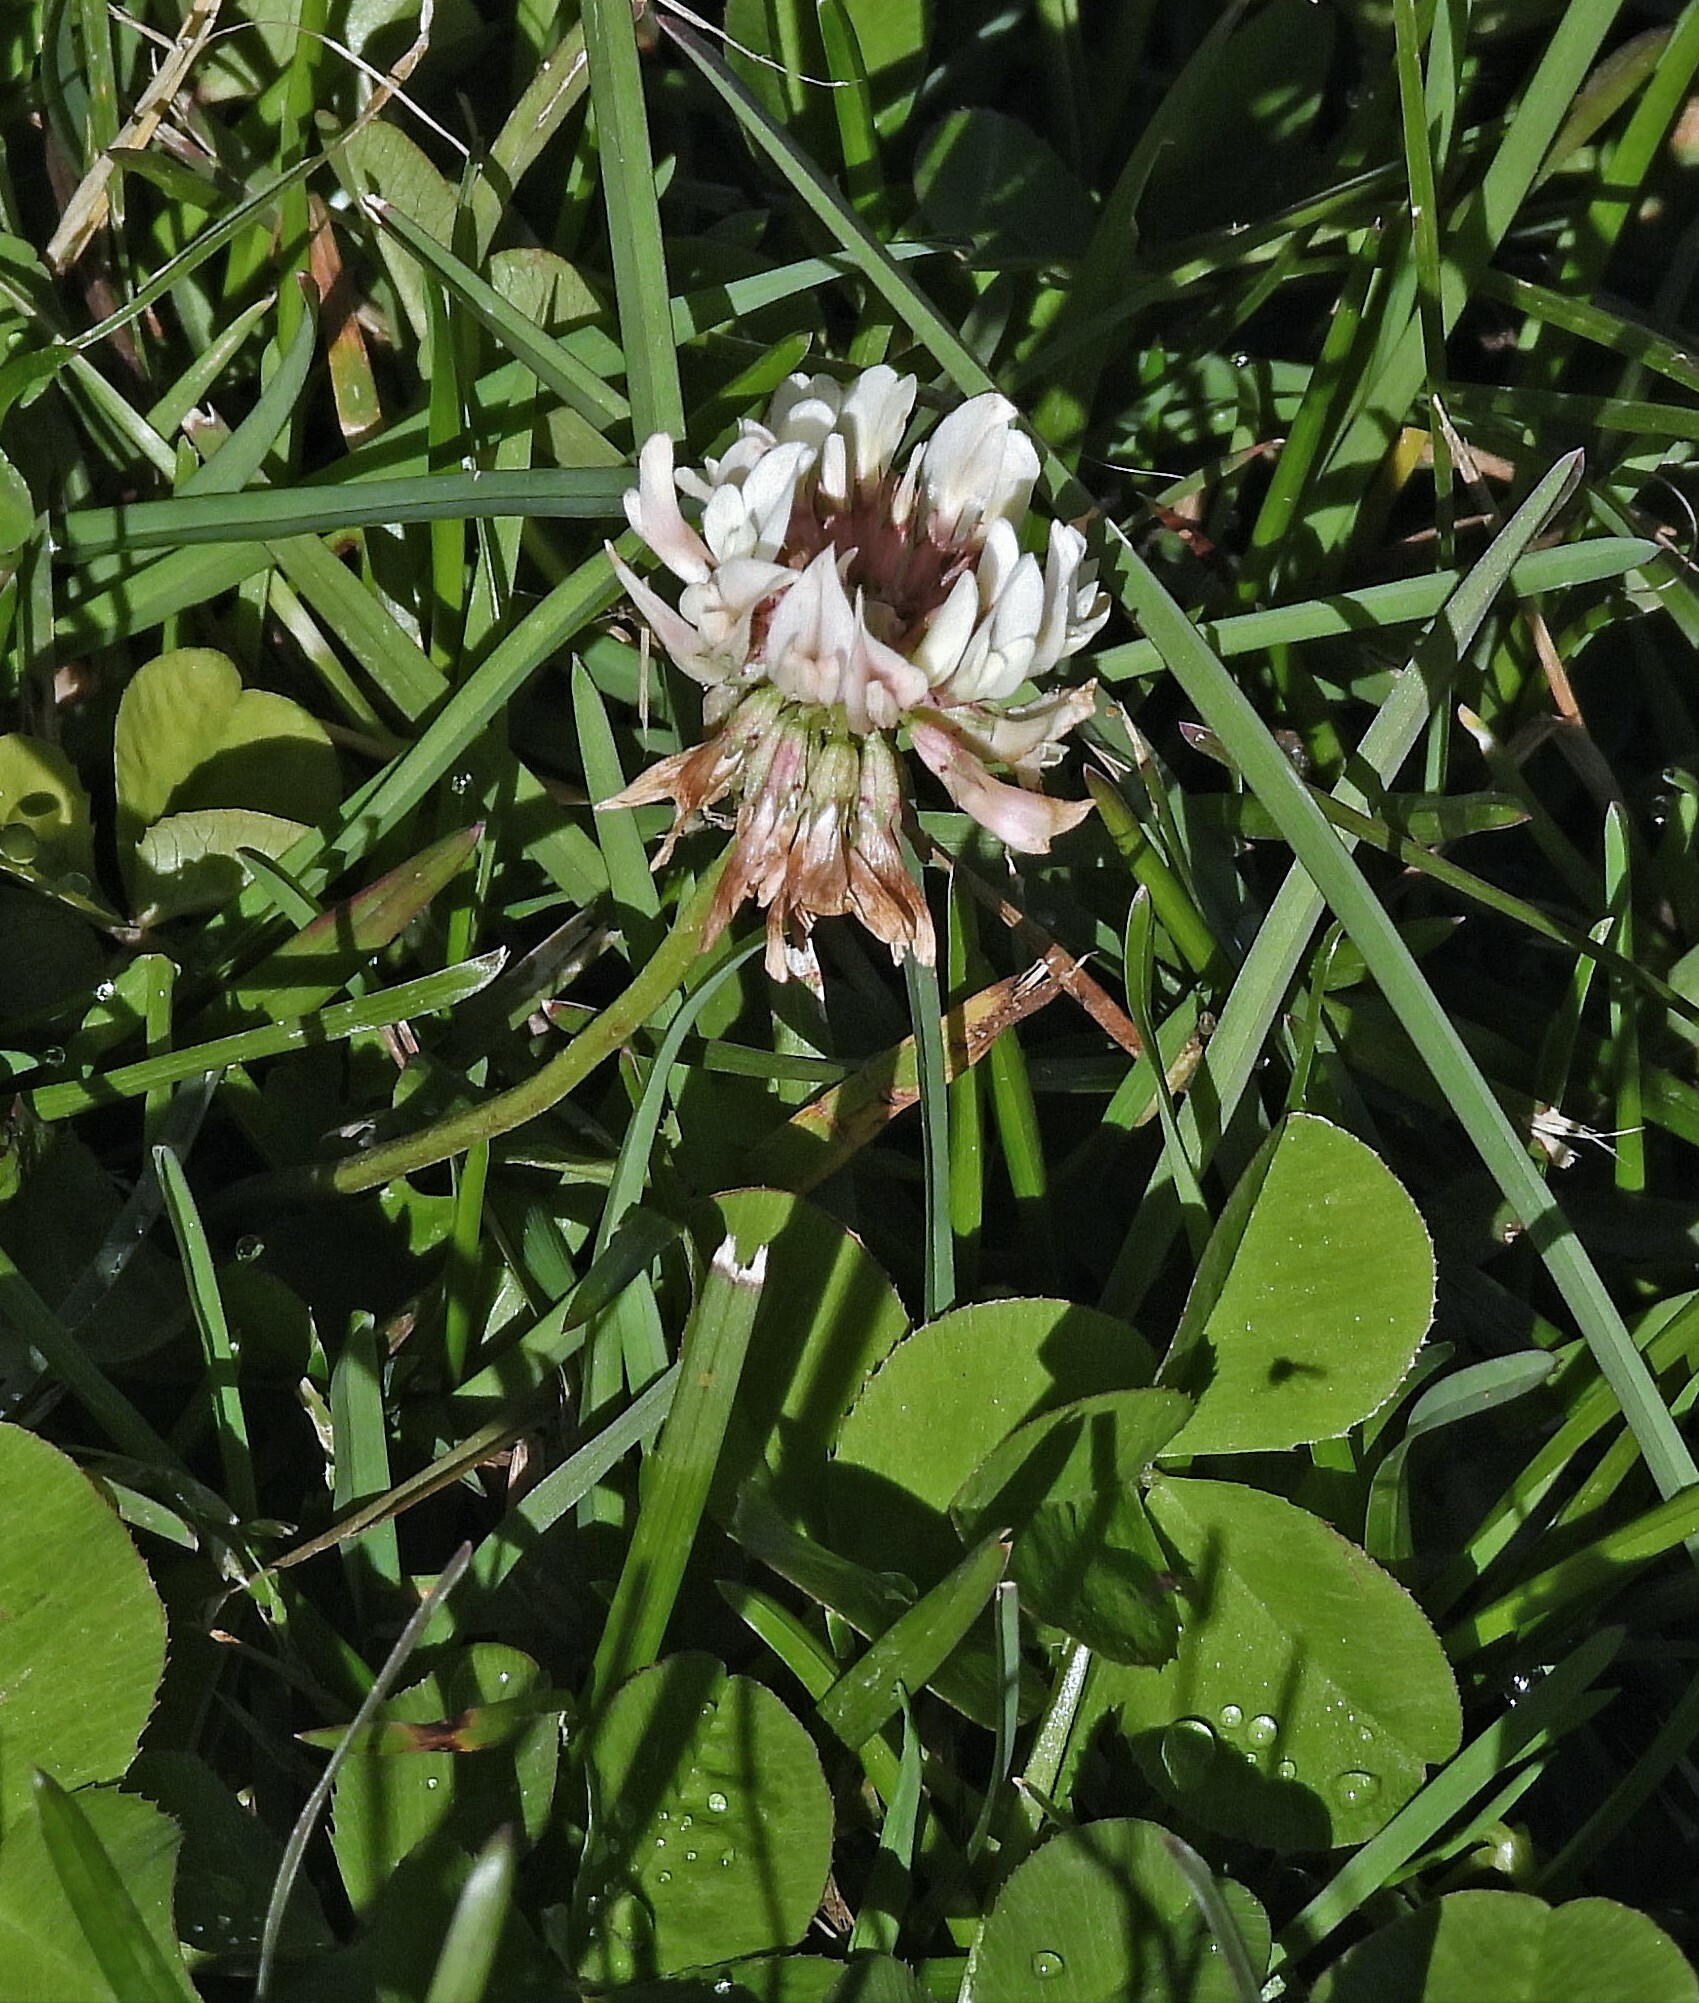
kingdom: Plantae
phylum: Tracheophyta
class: Magnoliopsida
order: Fabales
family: Fabaceae
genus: Trifolium
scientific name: Trifolium repens
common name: White clover
